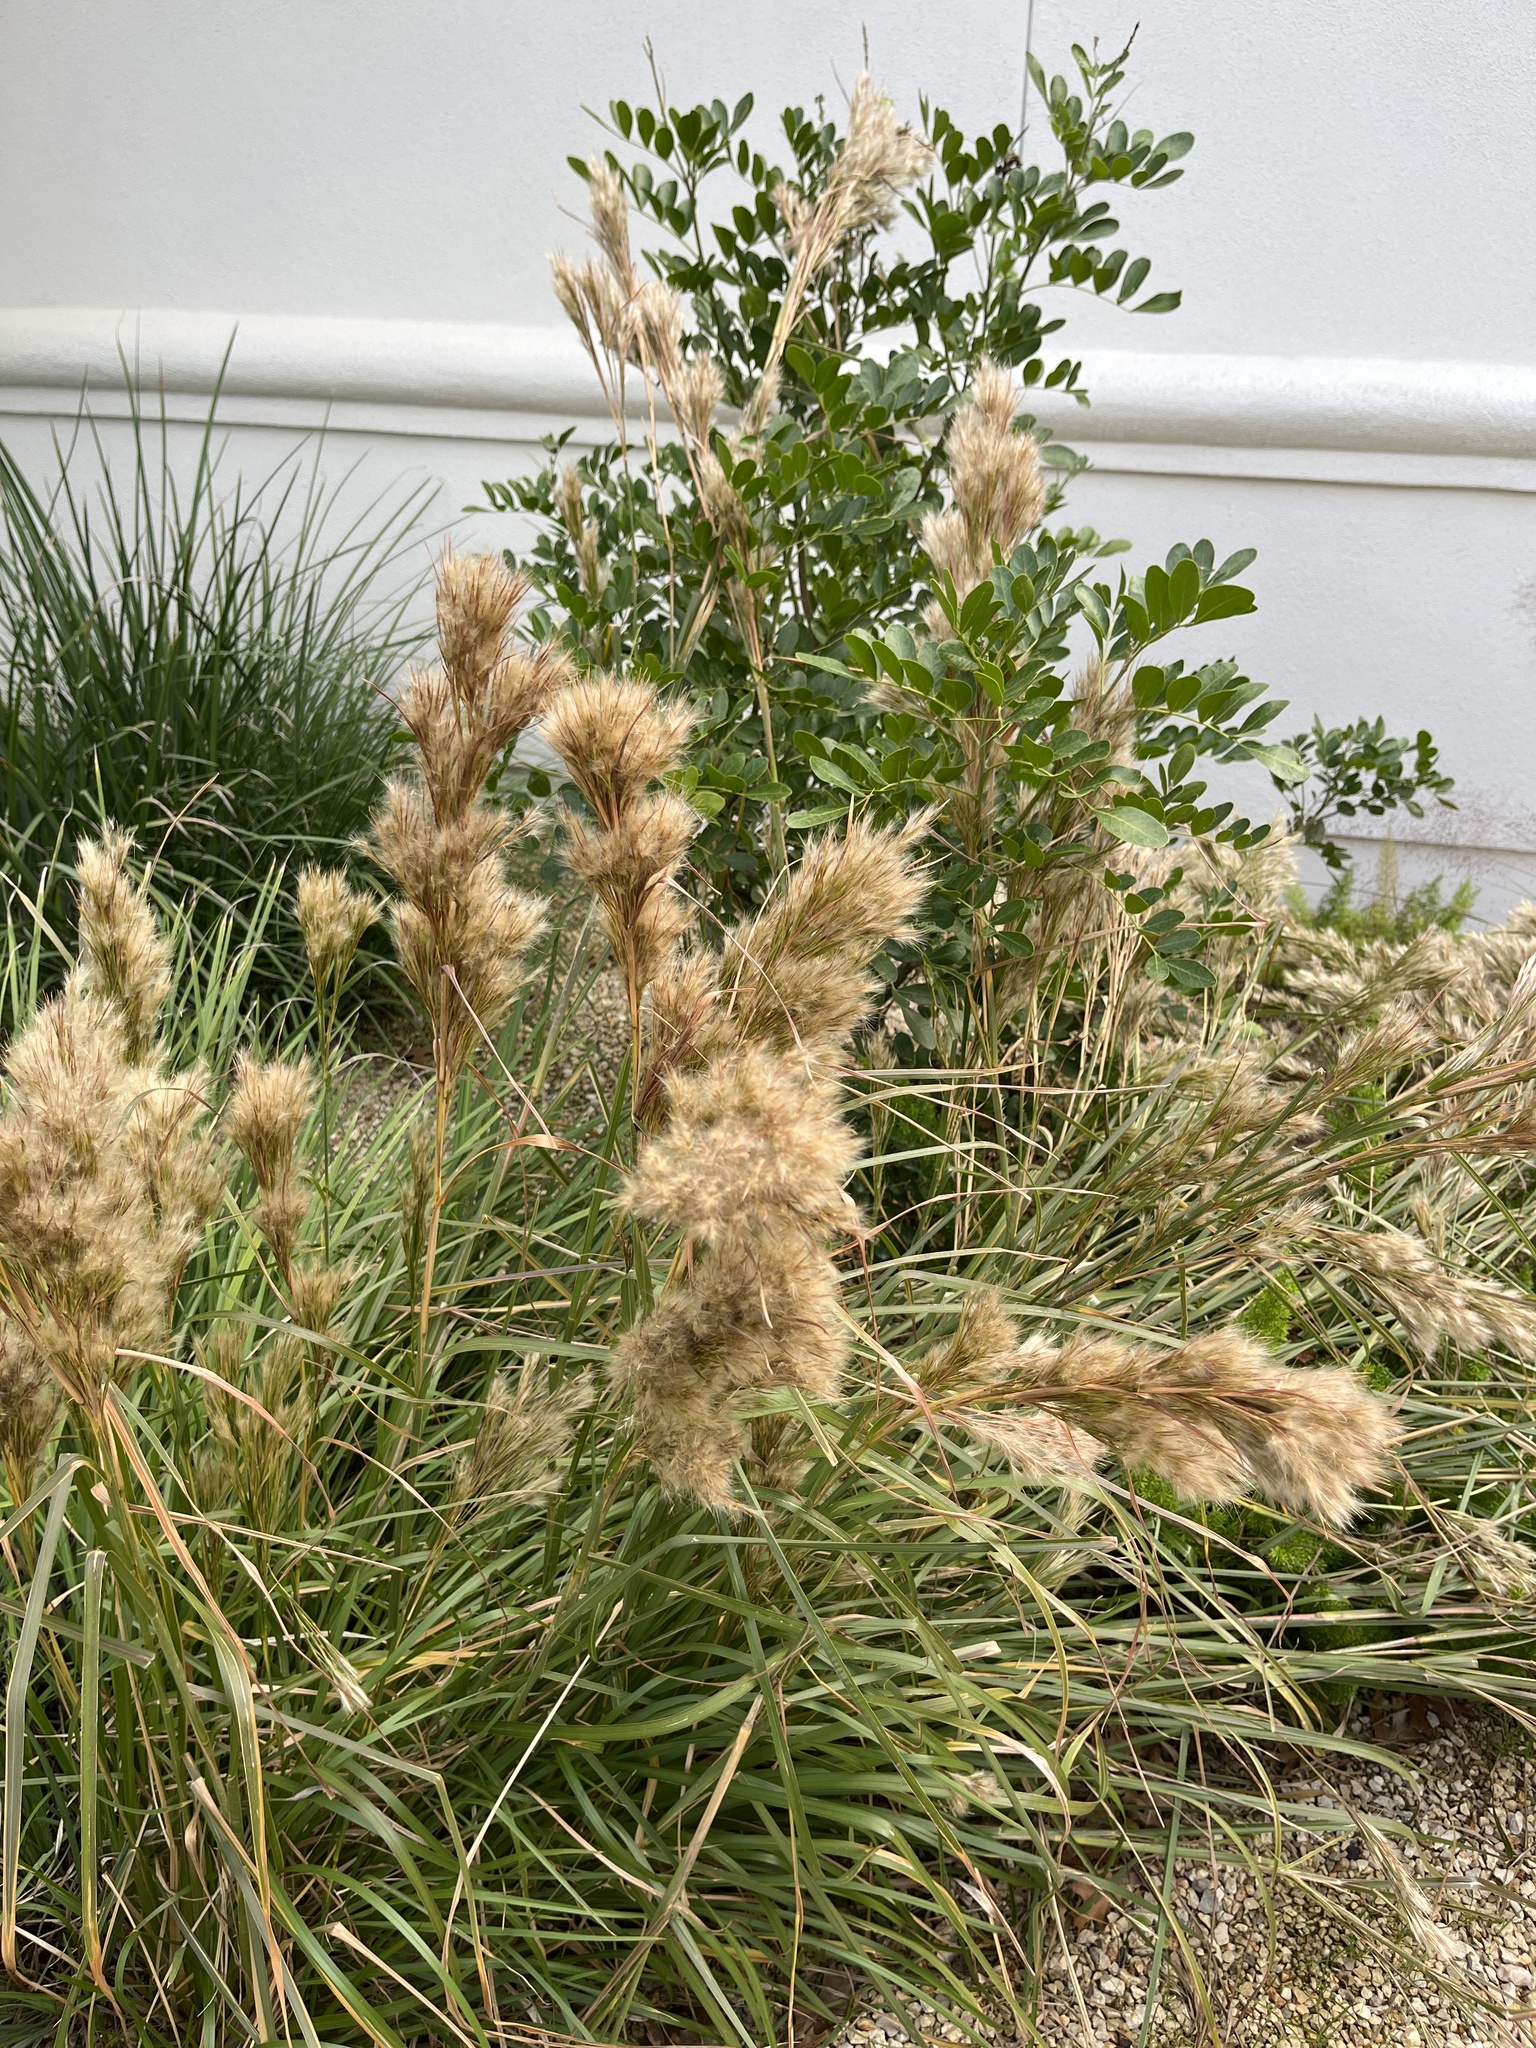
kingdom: Plantae
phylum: Tracheophyta
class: Liliopsida
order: Poales
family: Poaceae
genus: Andropogon
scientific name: Andropogon tenuispatheus
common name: Bushy bluestem
